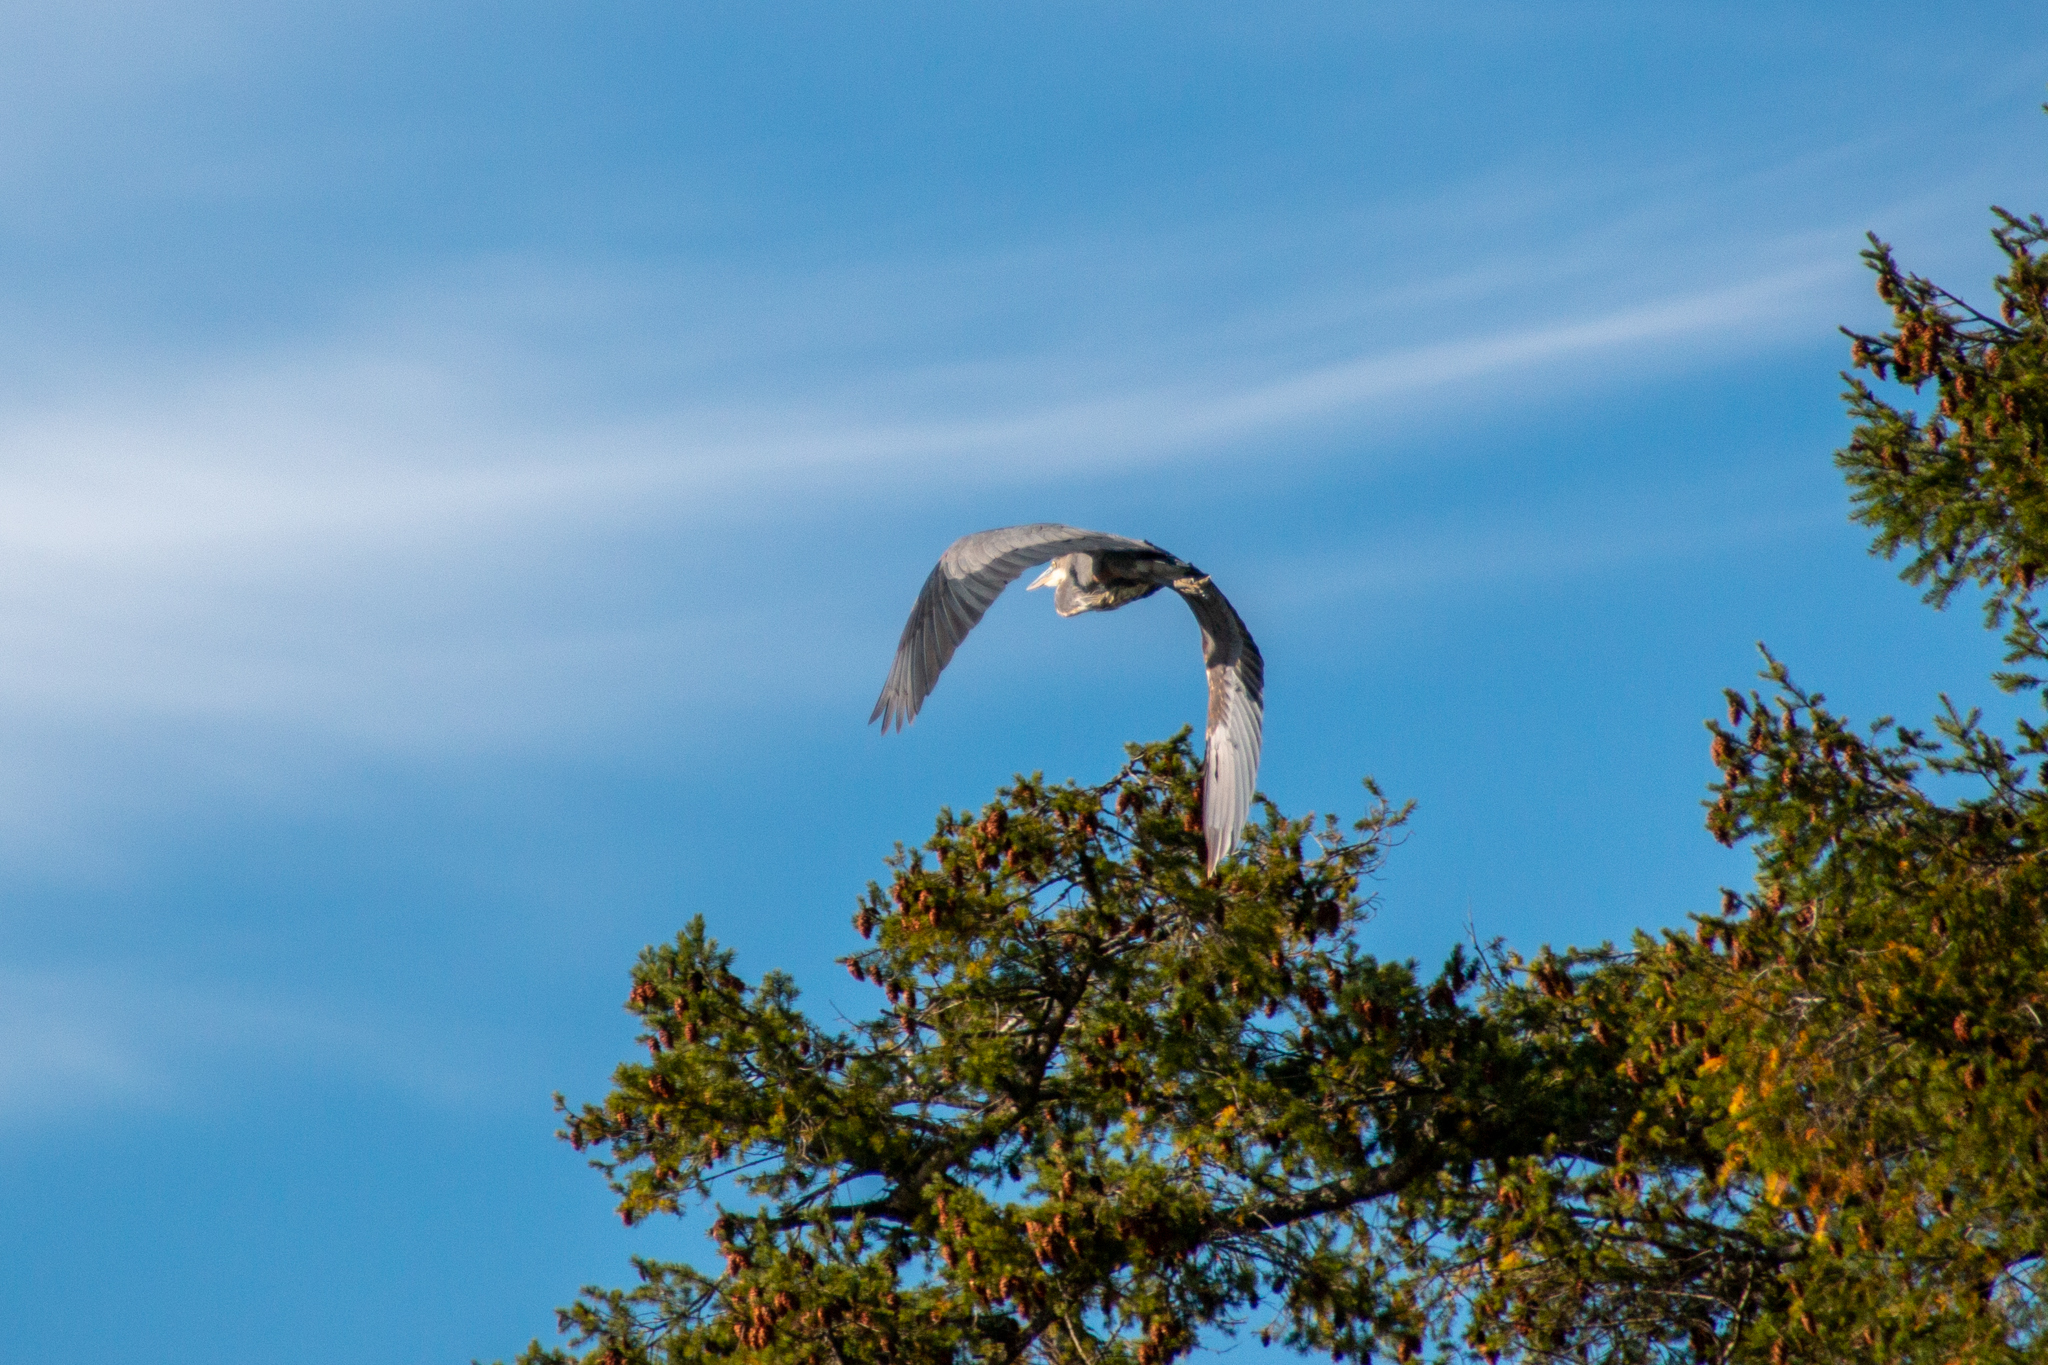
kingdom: Animalia
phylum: Chordata
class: Aves
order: Pelecaniformes
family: Ardeidae
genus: Ardea
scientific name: Ardea herodias
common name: Great blue heron
